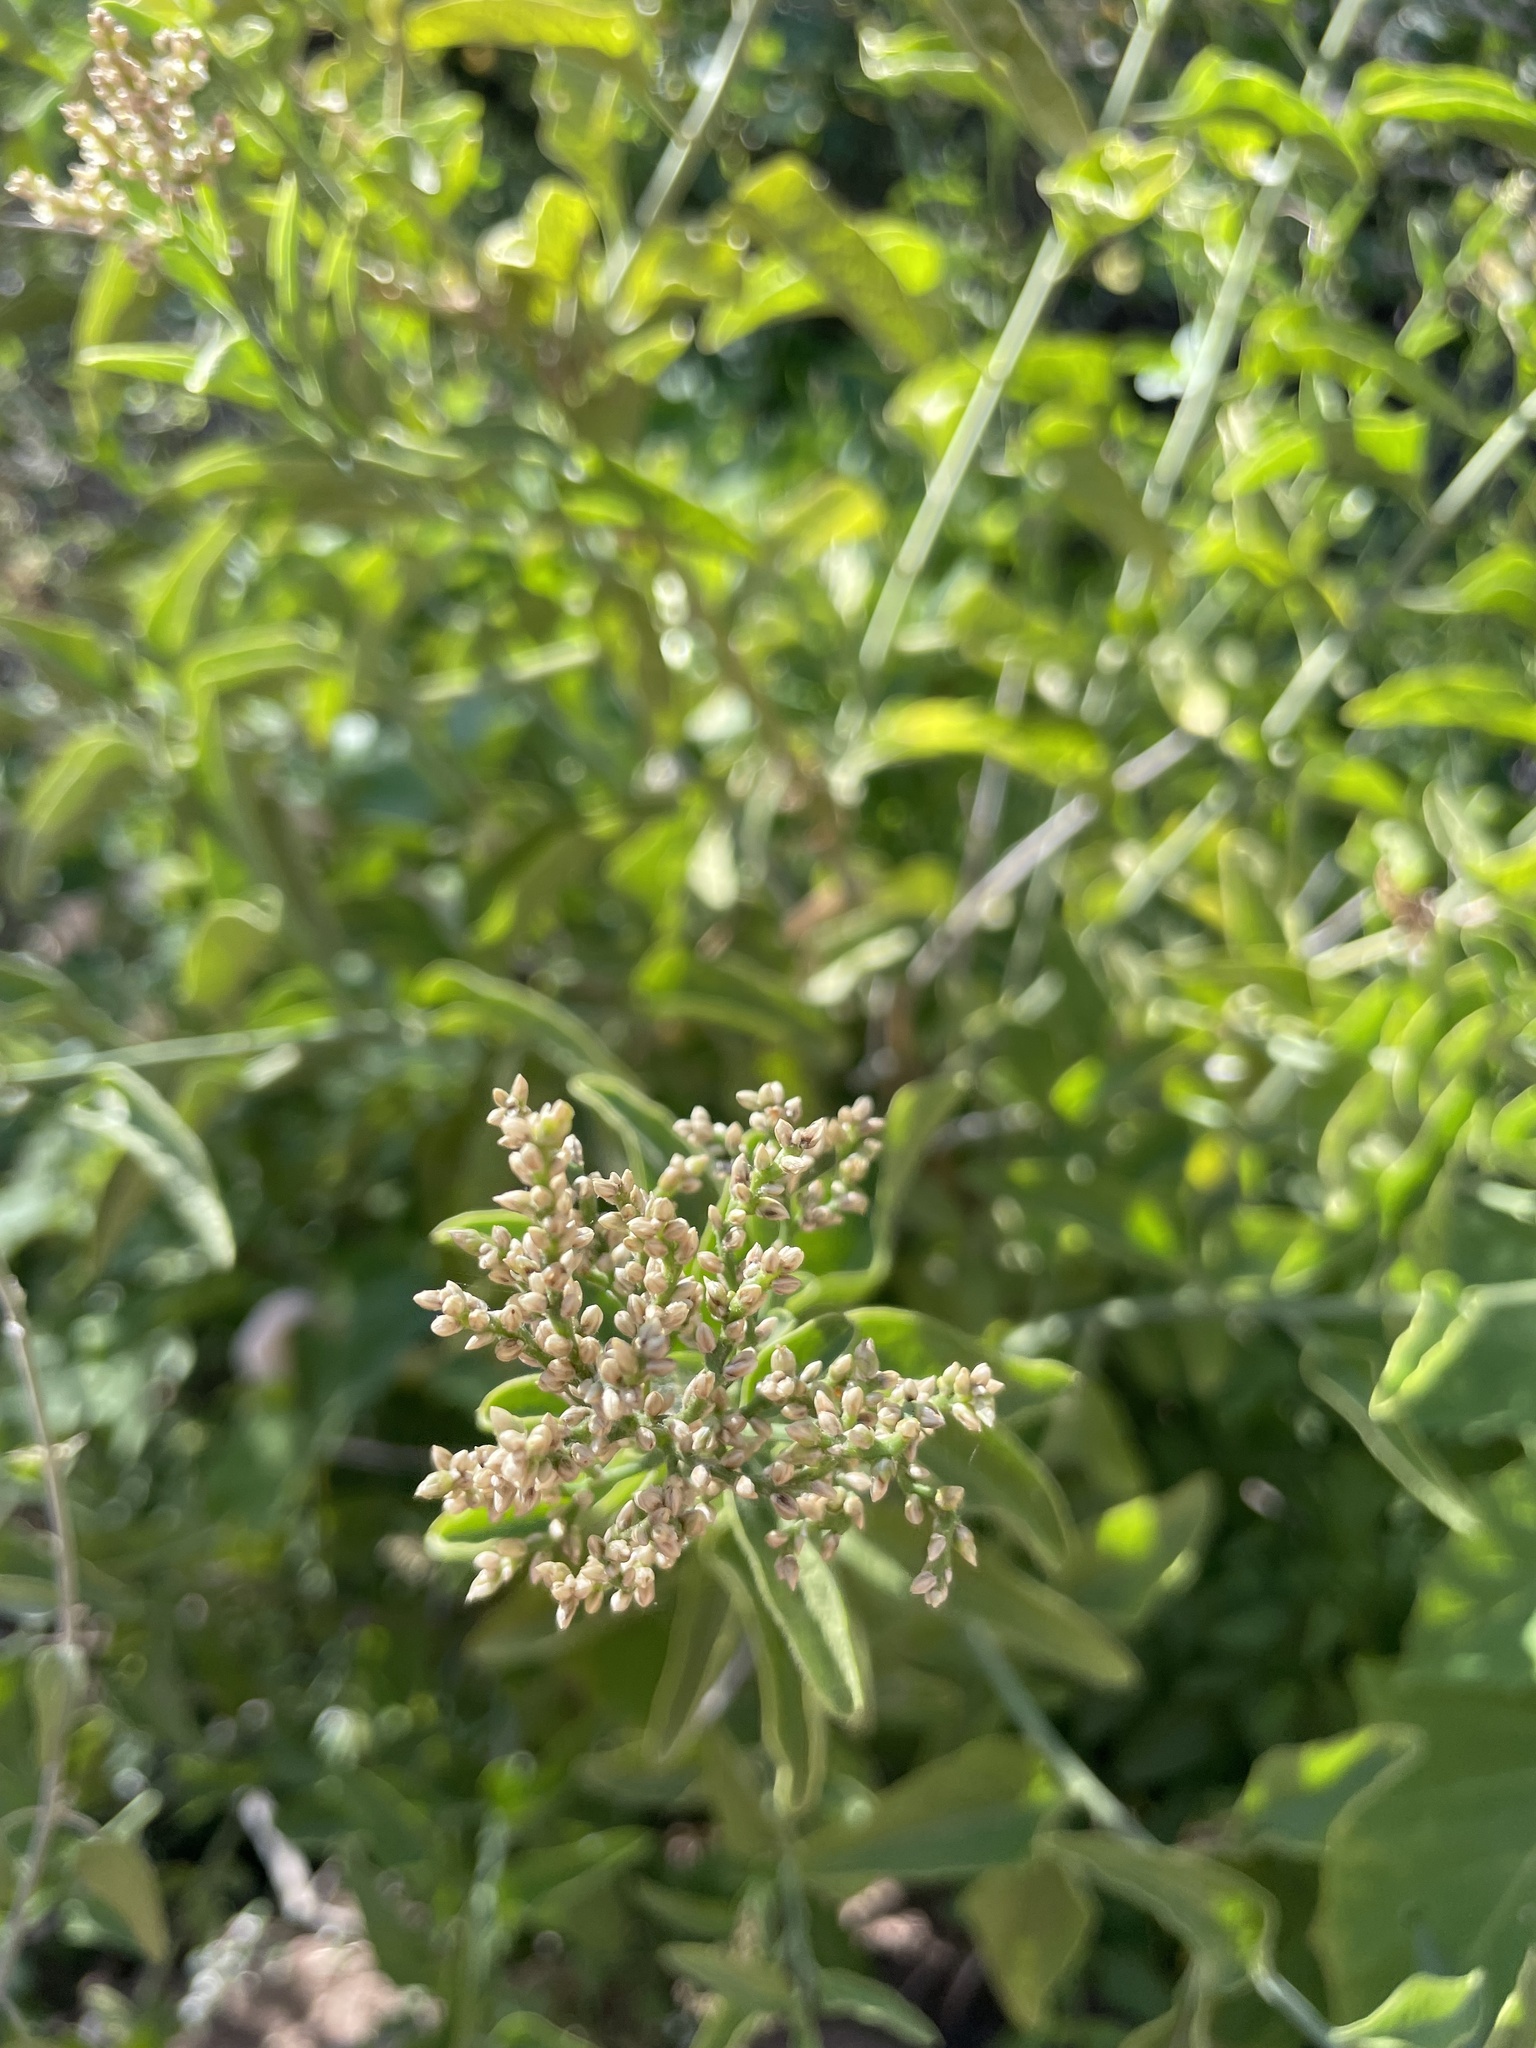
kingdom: Plantae
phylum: Tracheophyta
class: Magnoliopsida
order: Caryophyllales
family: Amaranthaceae
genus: Celosia
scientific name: Celosia floribunda
